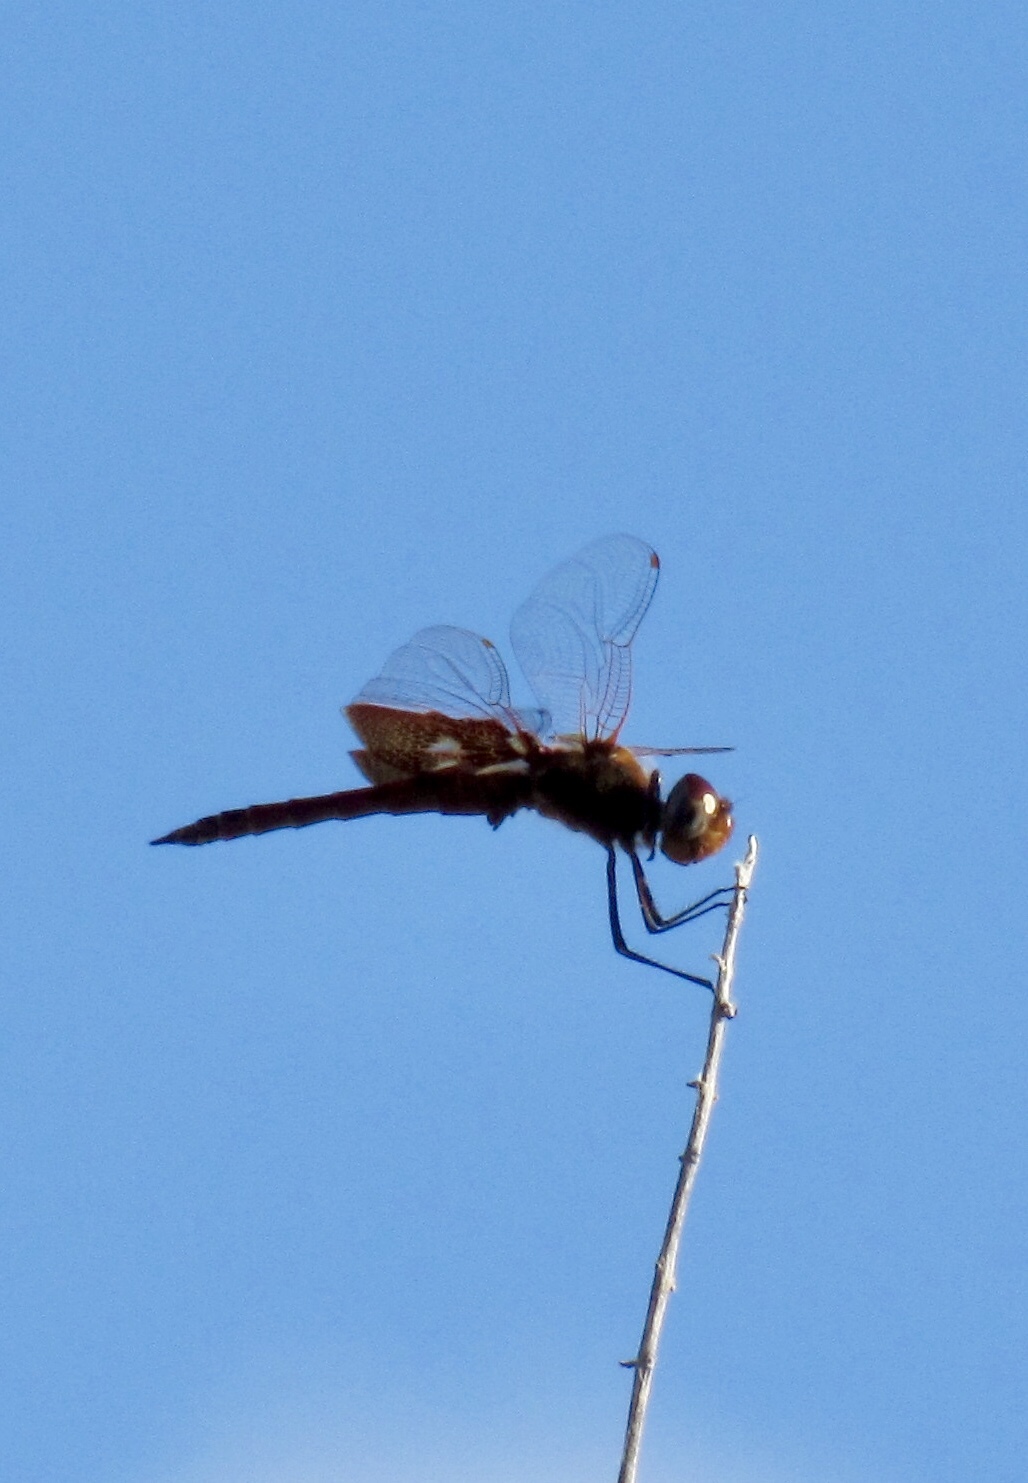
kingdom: Animalia
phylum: Arthropoda
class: Insecta
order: Odonata
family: Libellulidae
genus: Tramea
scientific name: Tramea onusta
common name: Red saddlebags
